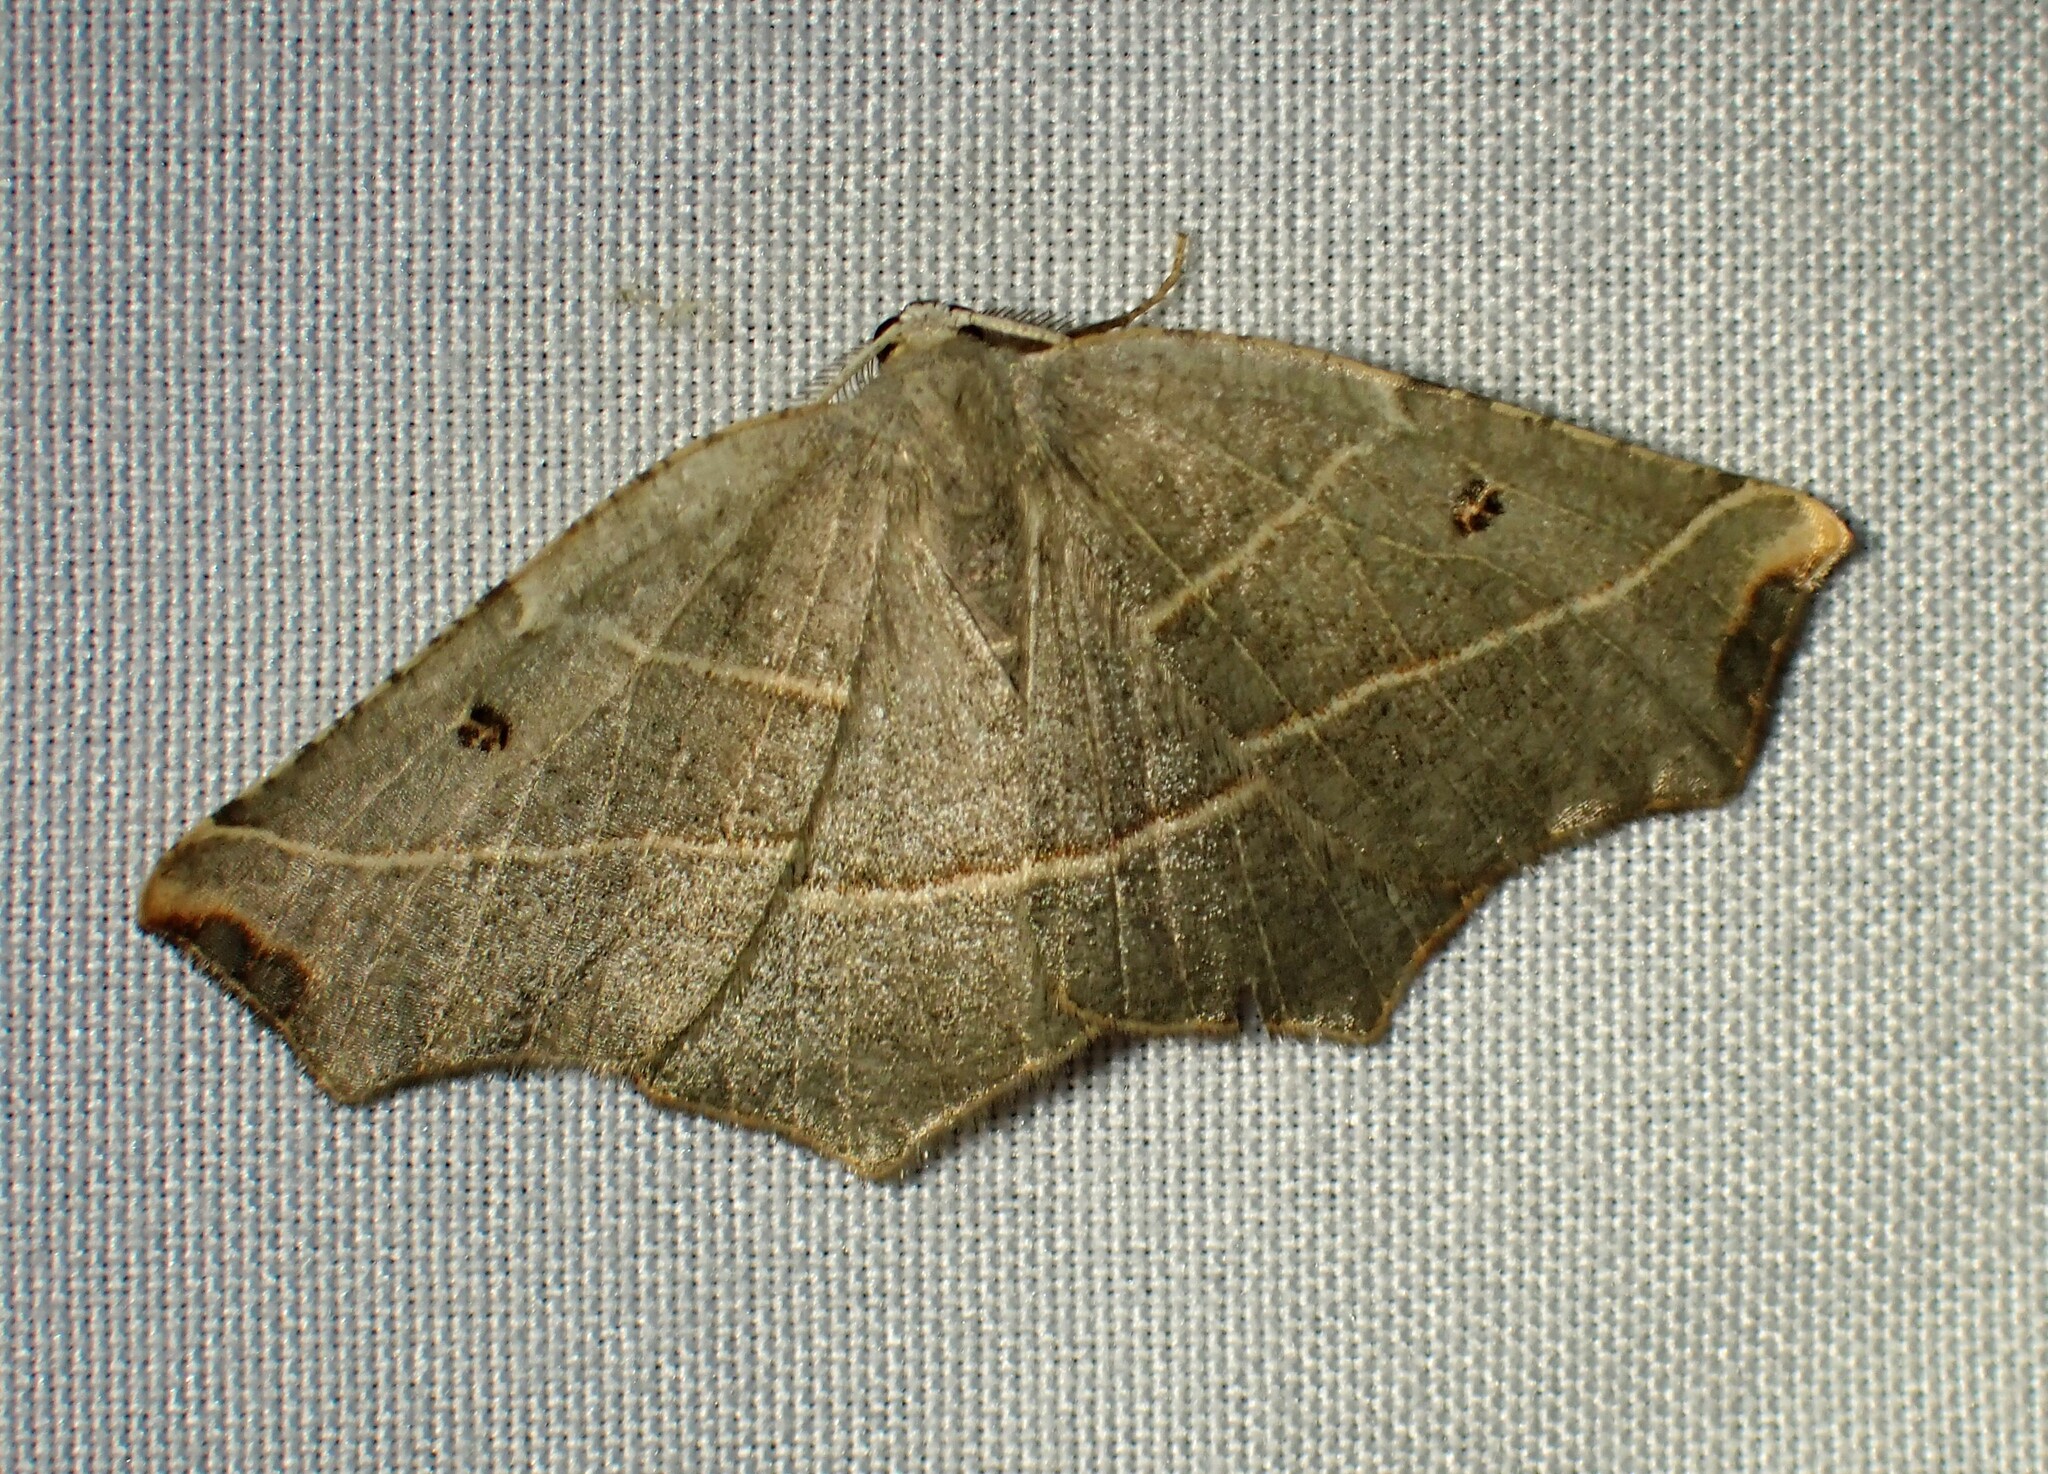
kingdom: Animalia
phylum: Arthropoda
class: Insecta
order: Lepidoptera
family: Geometridae
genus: Metanema
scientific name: Metanema inatomaria
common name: Pale metanema
